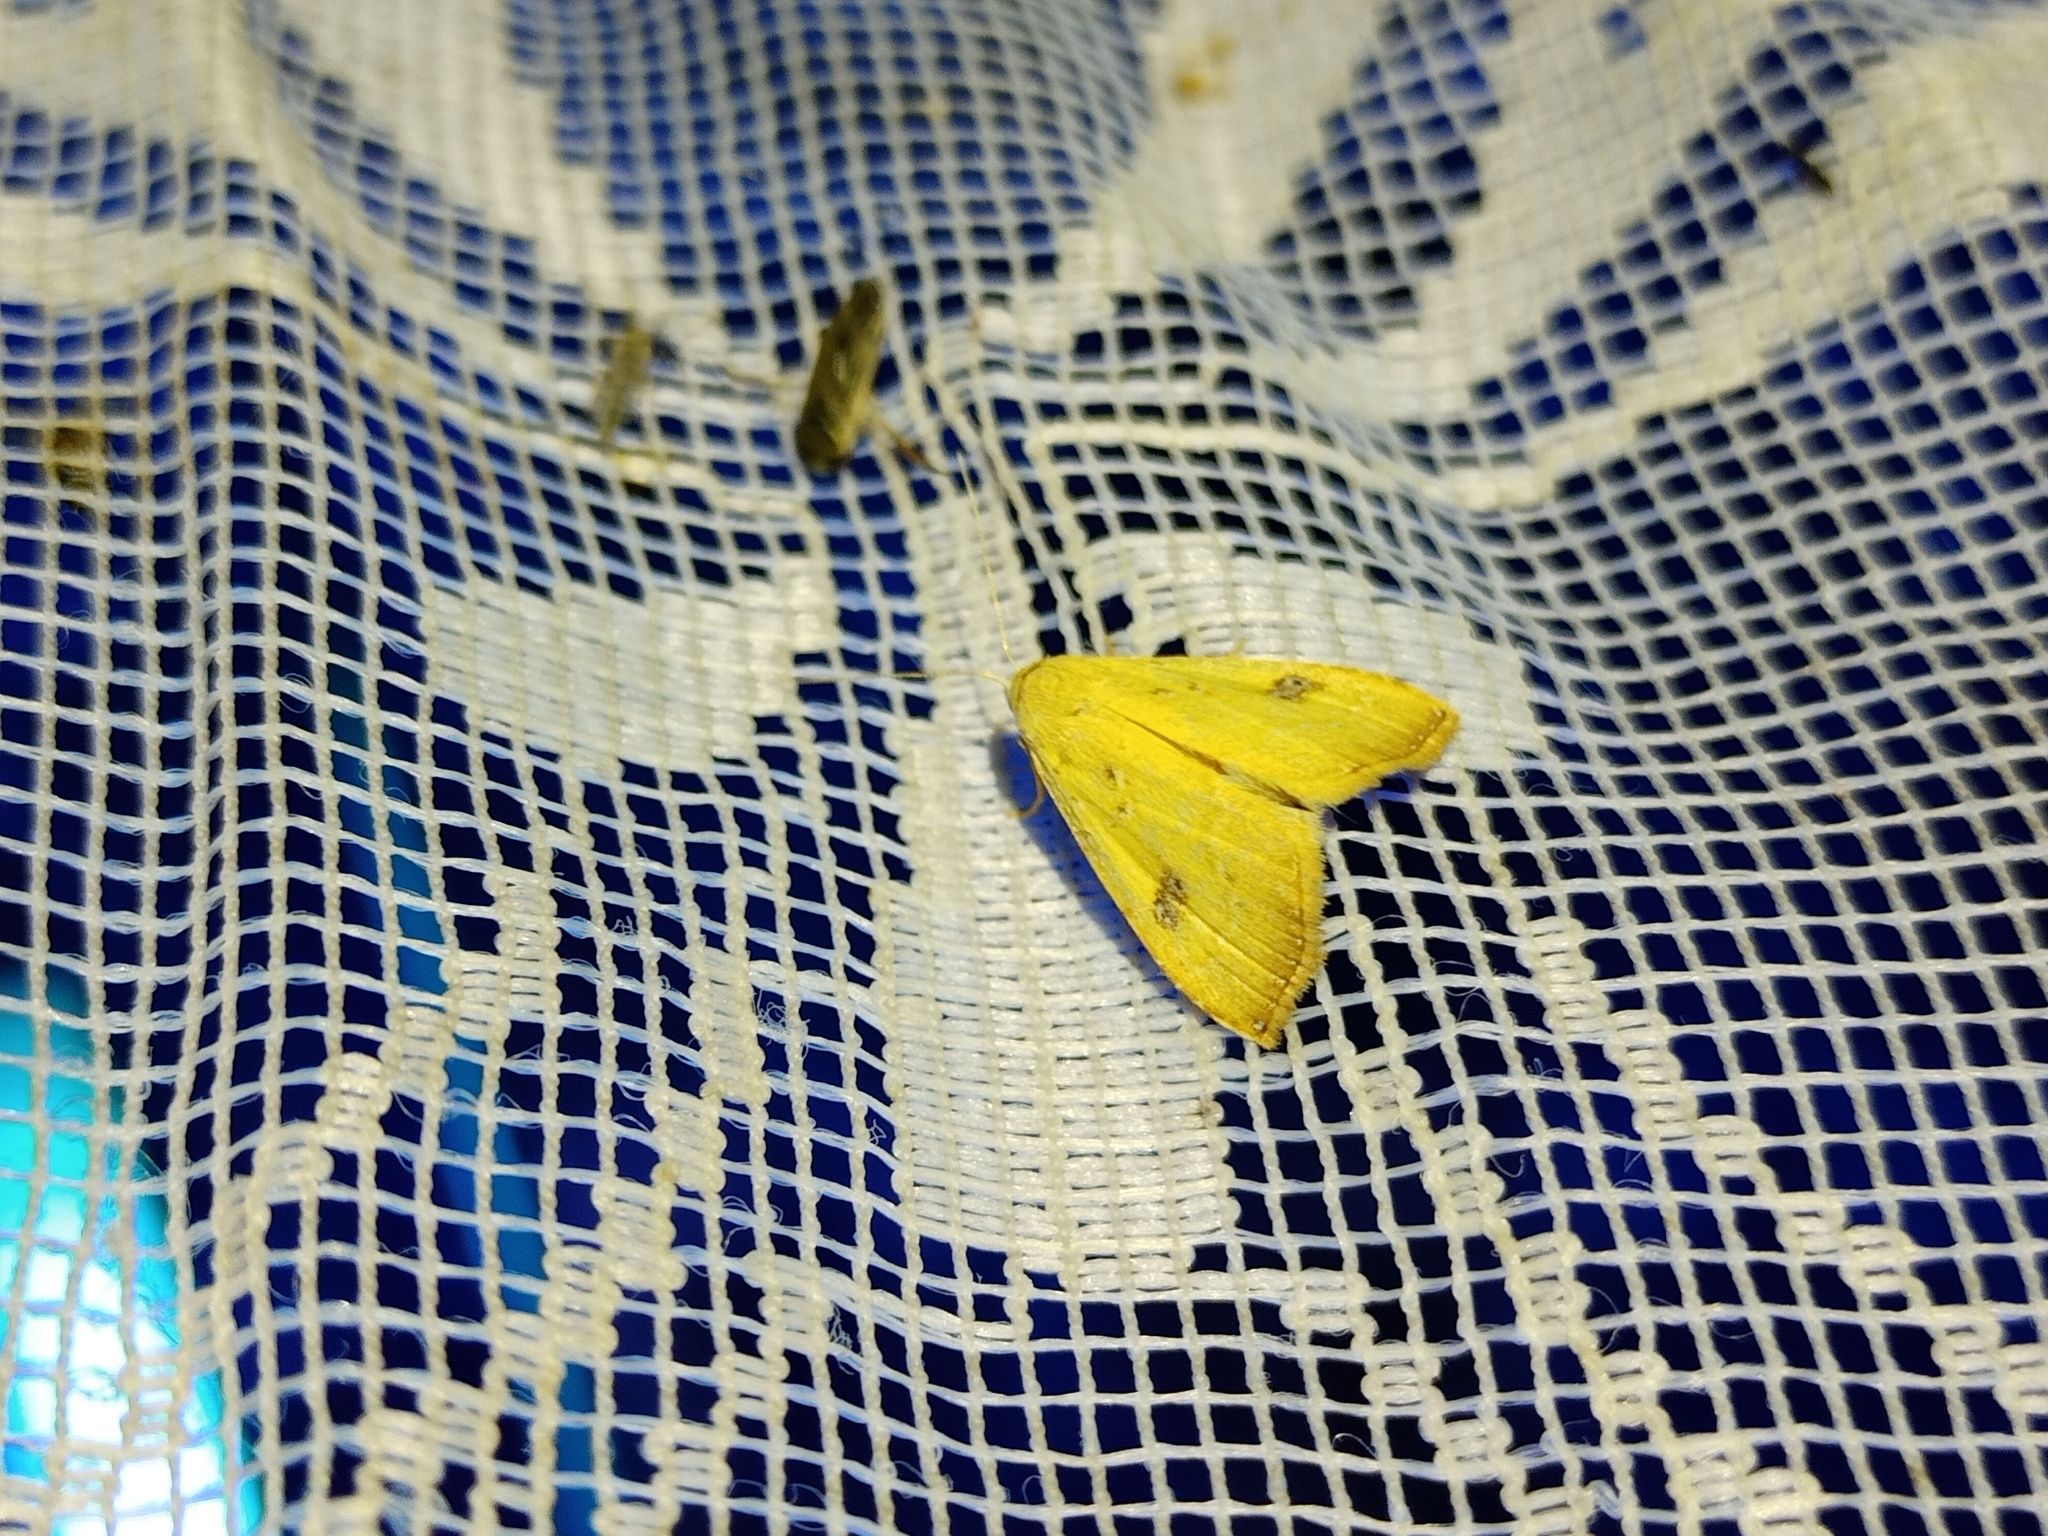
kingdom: Animalia
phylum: Arthropoda
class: Insecta
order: Lepidoptera
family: Erebidae
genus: Rivula
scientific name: Rivula sericealis
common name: Straw dot
